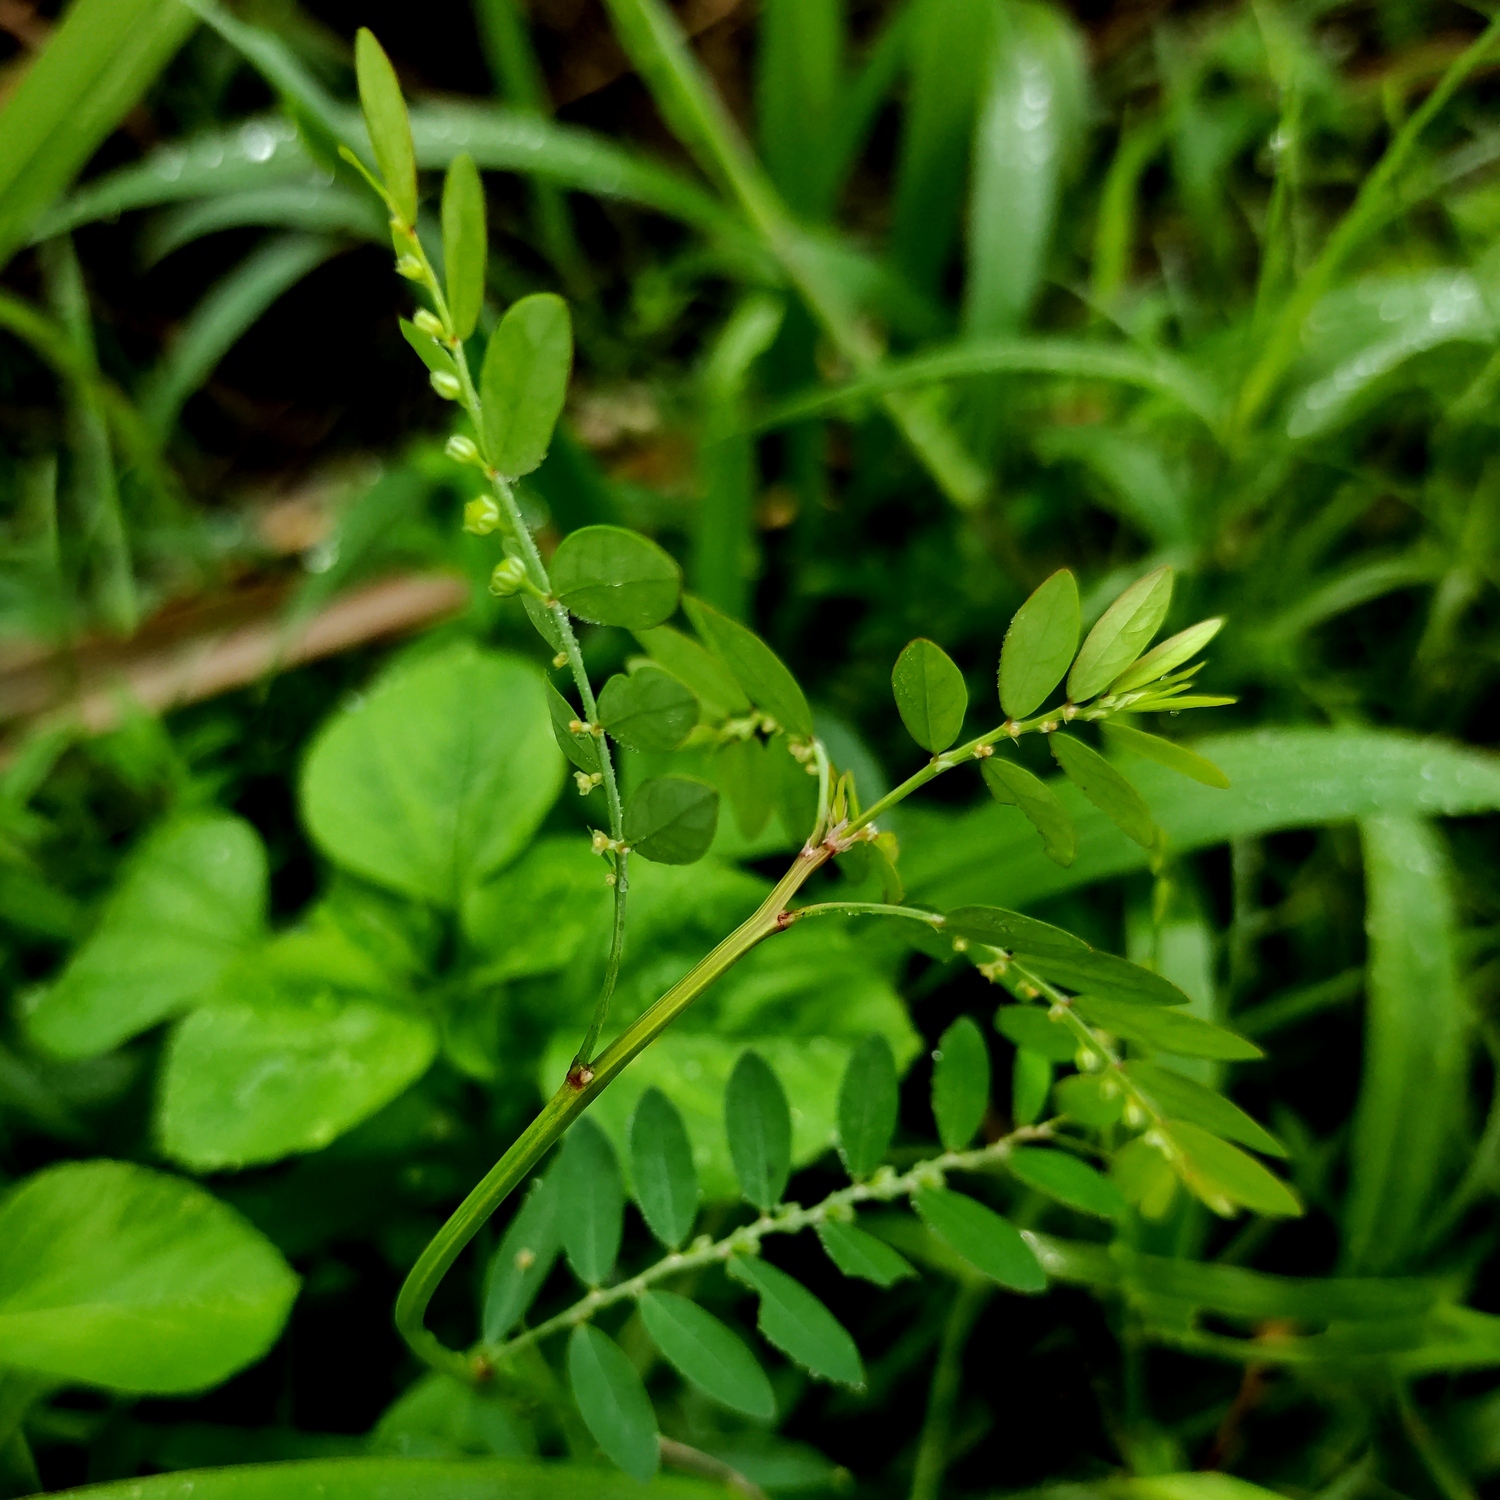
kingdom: Plantae
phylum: Tracheophyta
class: Magnoliopsida
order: Malpighiales
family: Phyllanthaceae
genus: Phyllanthus
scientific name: Phyllanthus debilis
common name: Niruri
